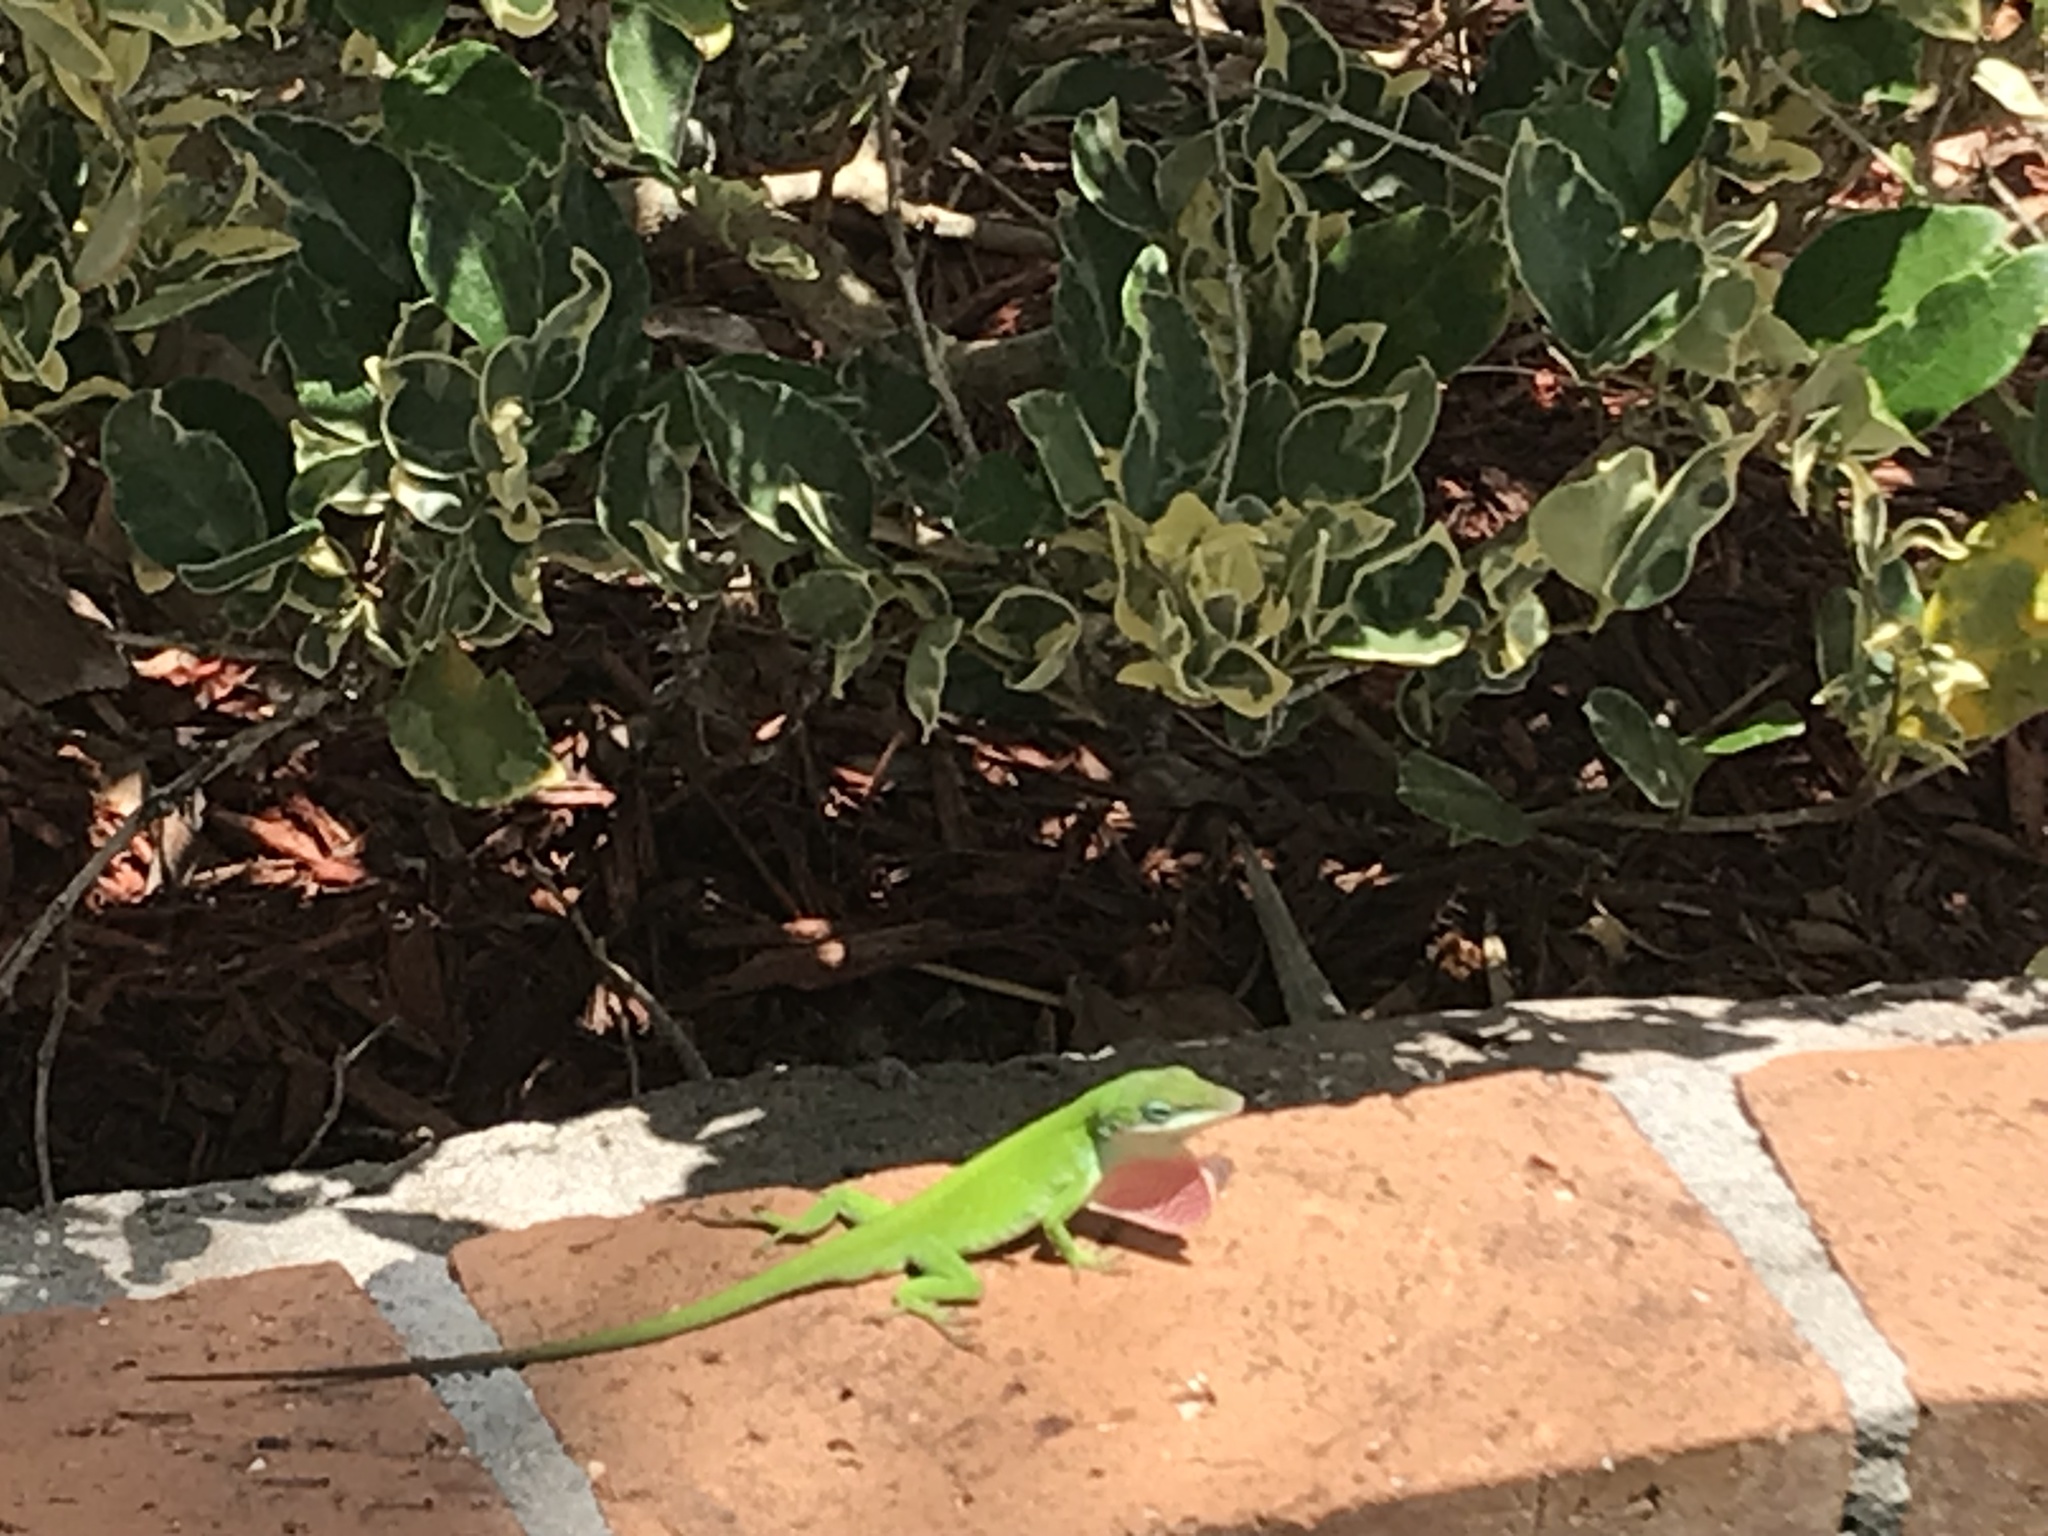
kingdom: Animalia
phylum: Chordata
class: Squamata
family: Dactyloidae
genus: Anolis
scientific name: Anolis carolinensis
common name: Green anole
